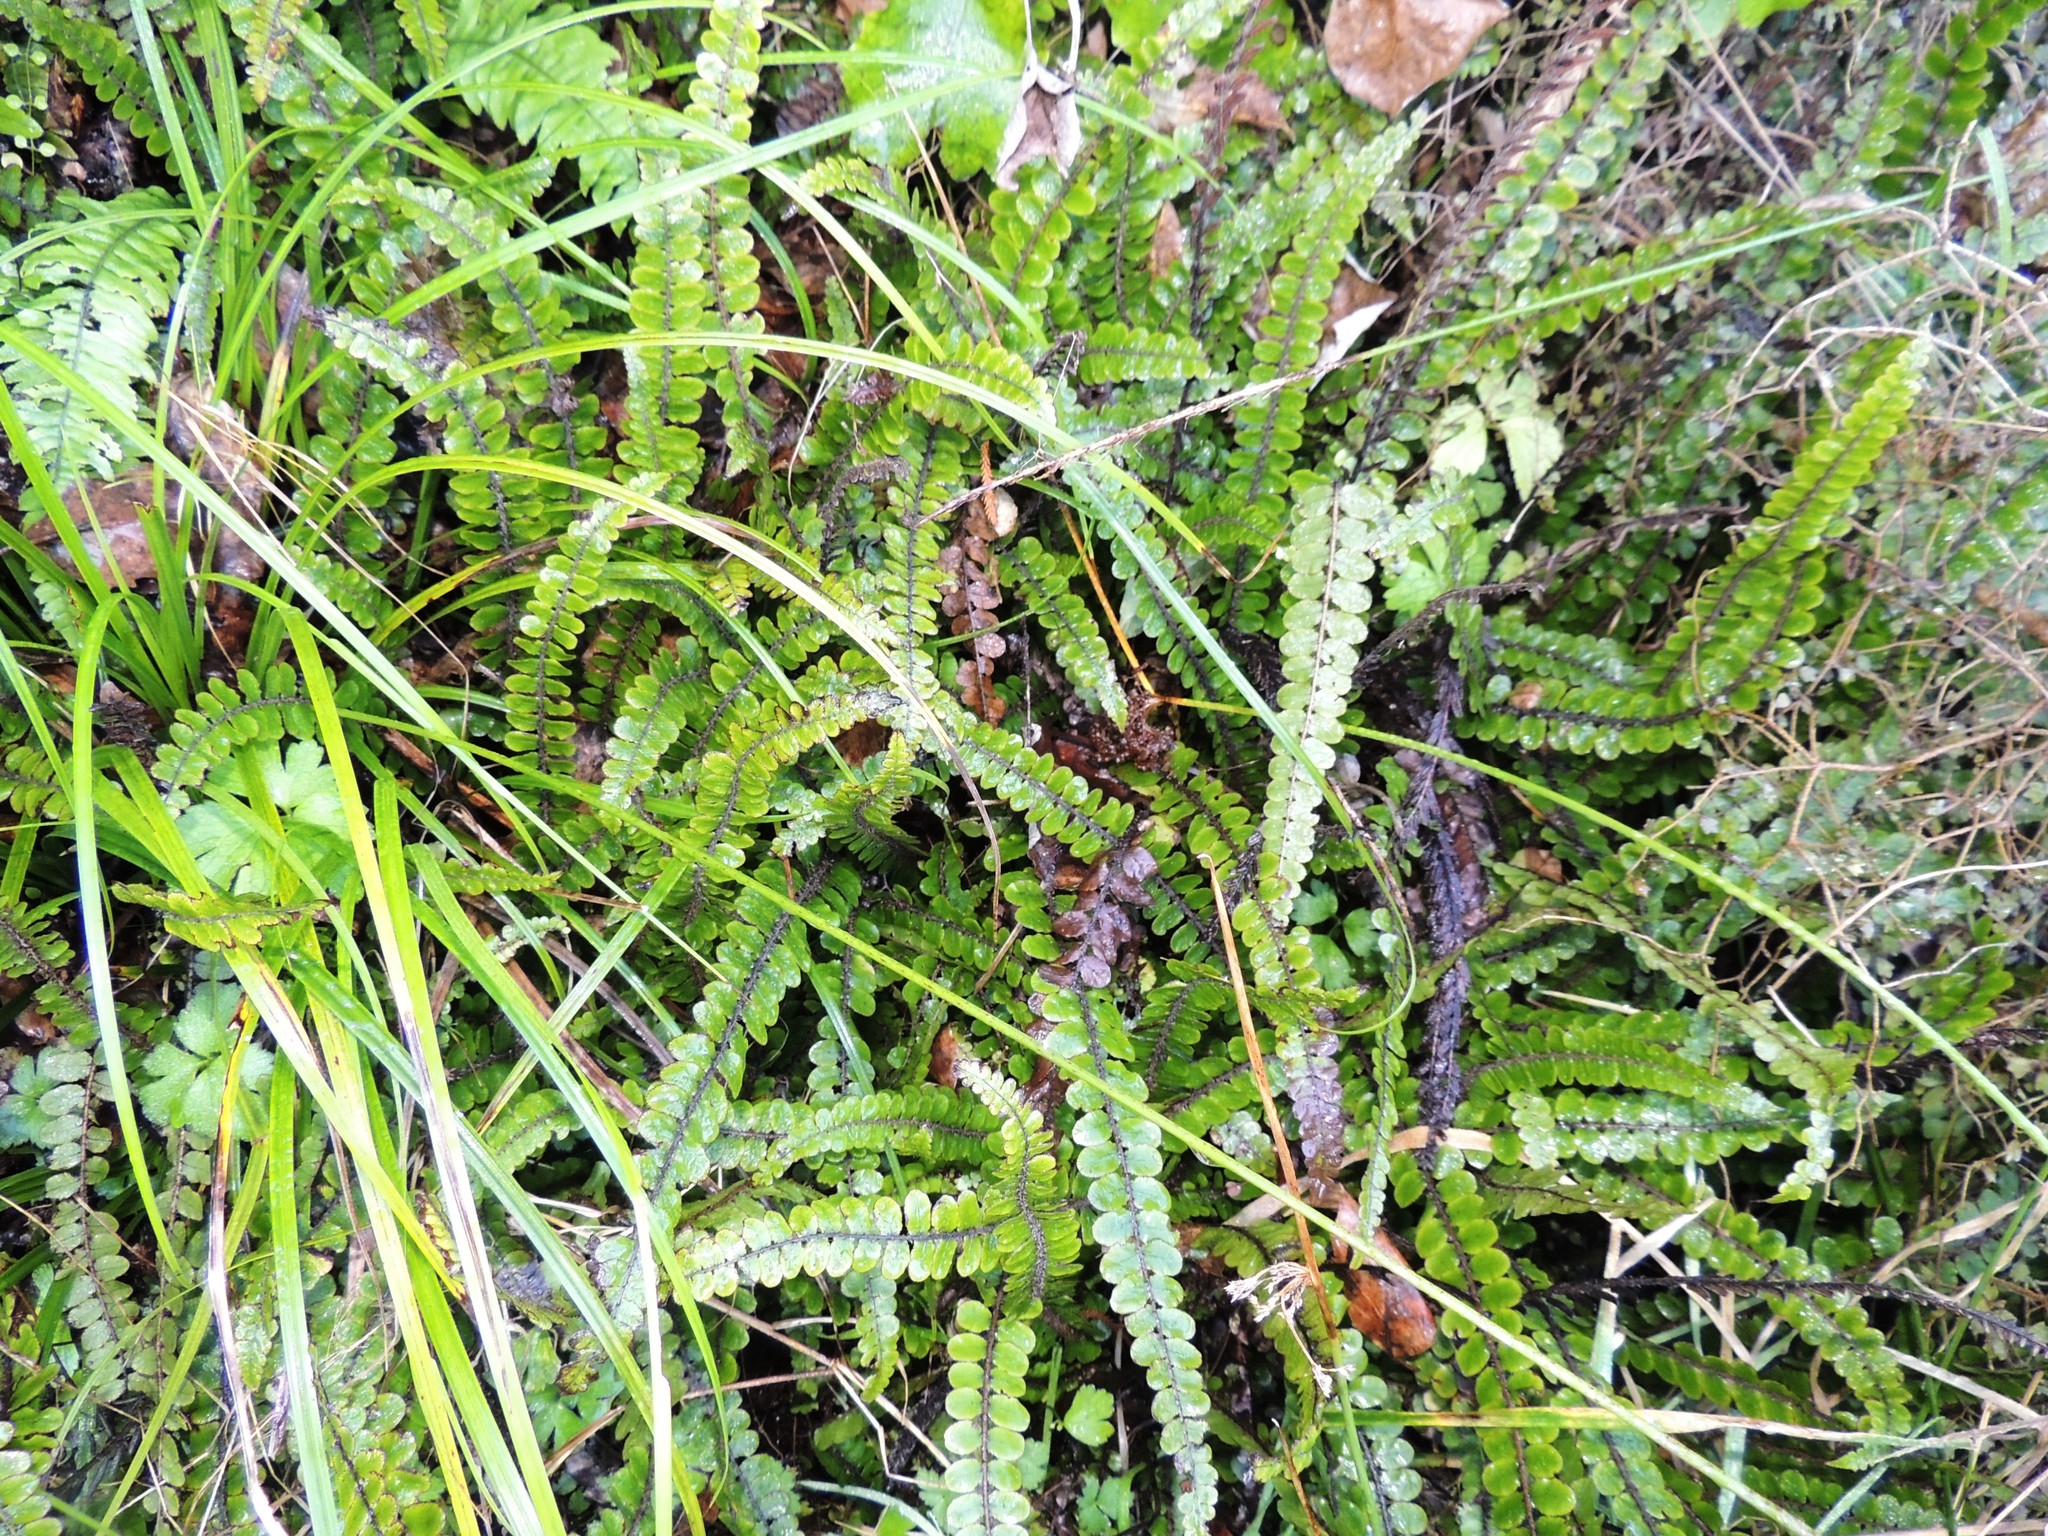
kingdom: Plantae
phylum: Tracheophyta
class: Polypodiopsida
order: Polypodiales
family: Blechnaceae
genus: Cranfillia
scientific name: Cranfillia fluviatilis
